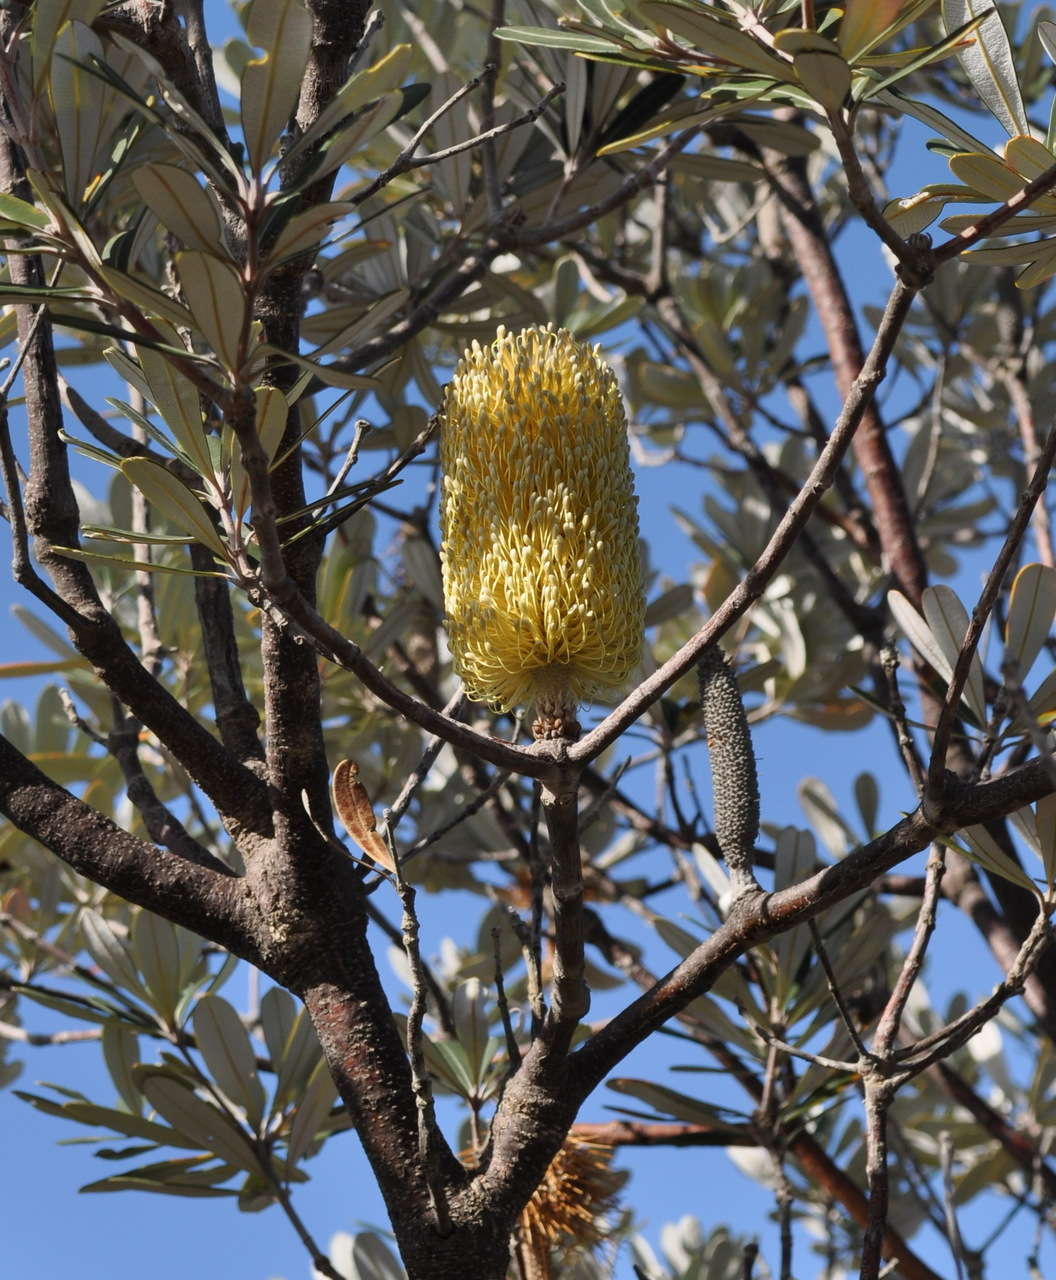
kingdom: Plantae
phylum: Tracheophyta
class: Magnoliopsida
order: Proteales
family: Proteaceae
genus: Banksia
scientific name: Banksia integrifolia
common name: White-honeysuckle
